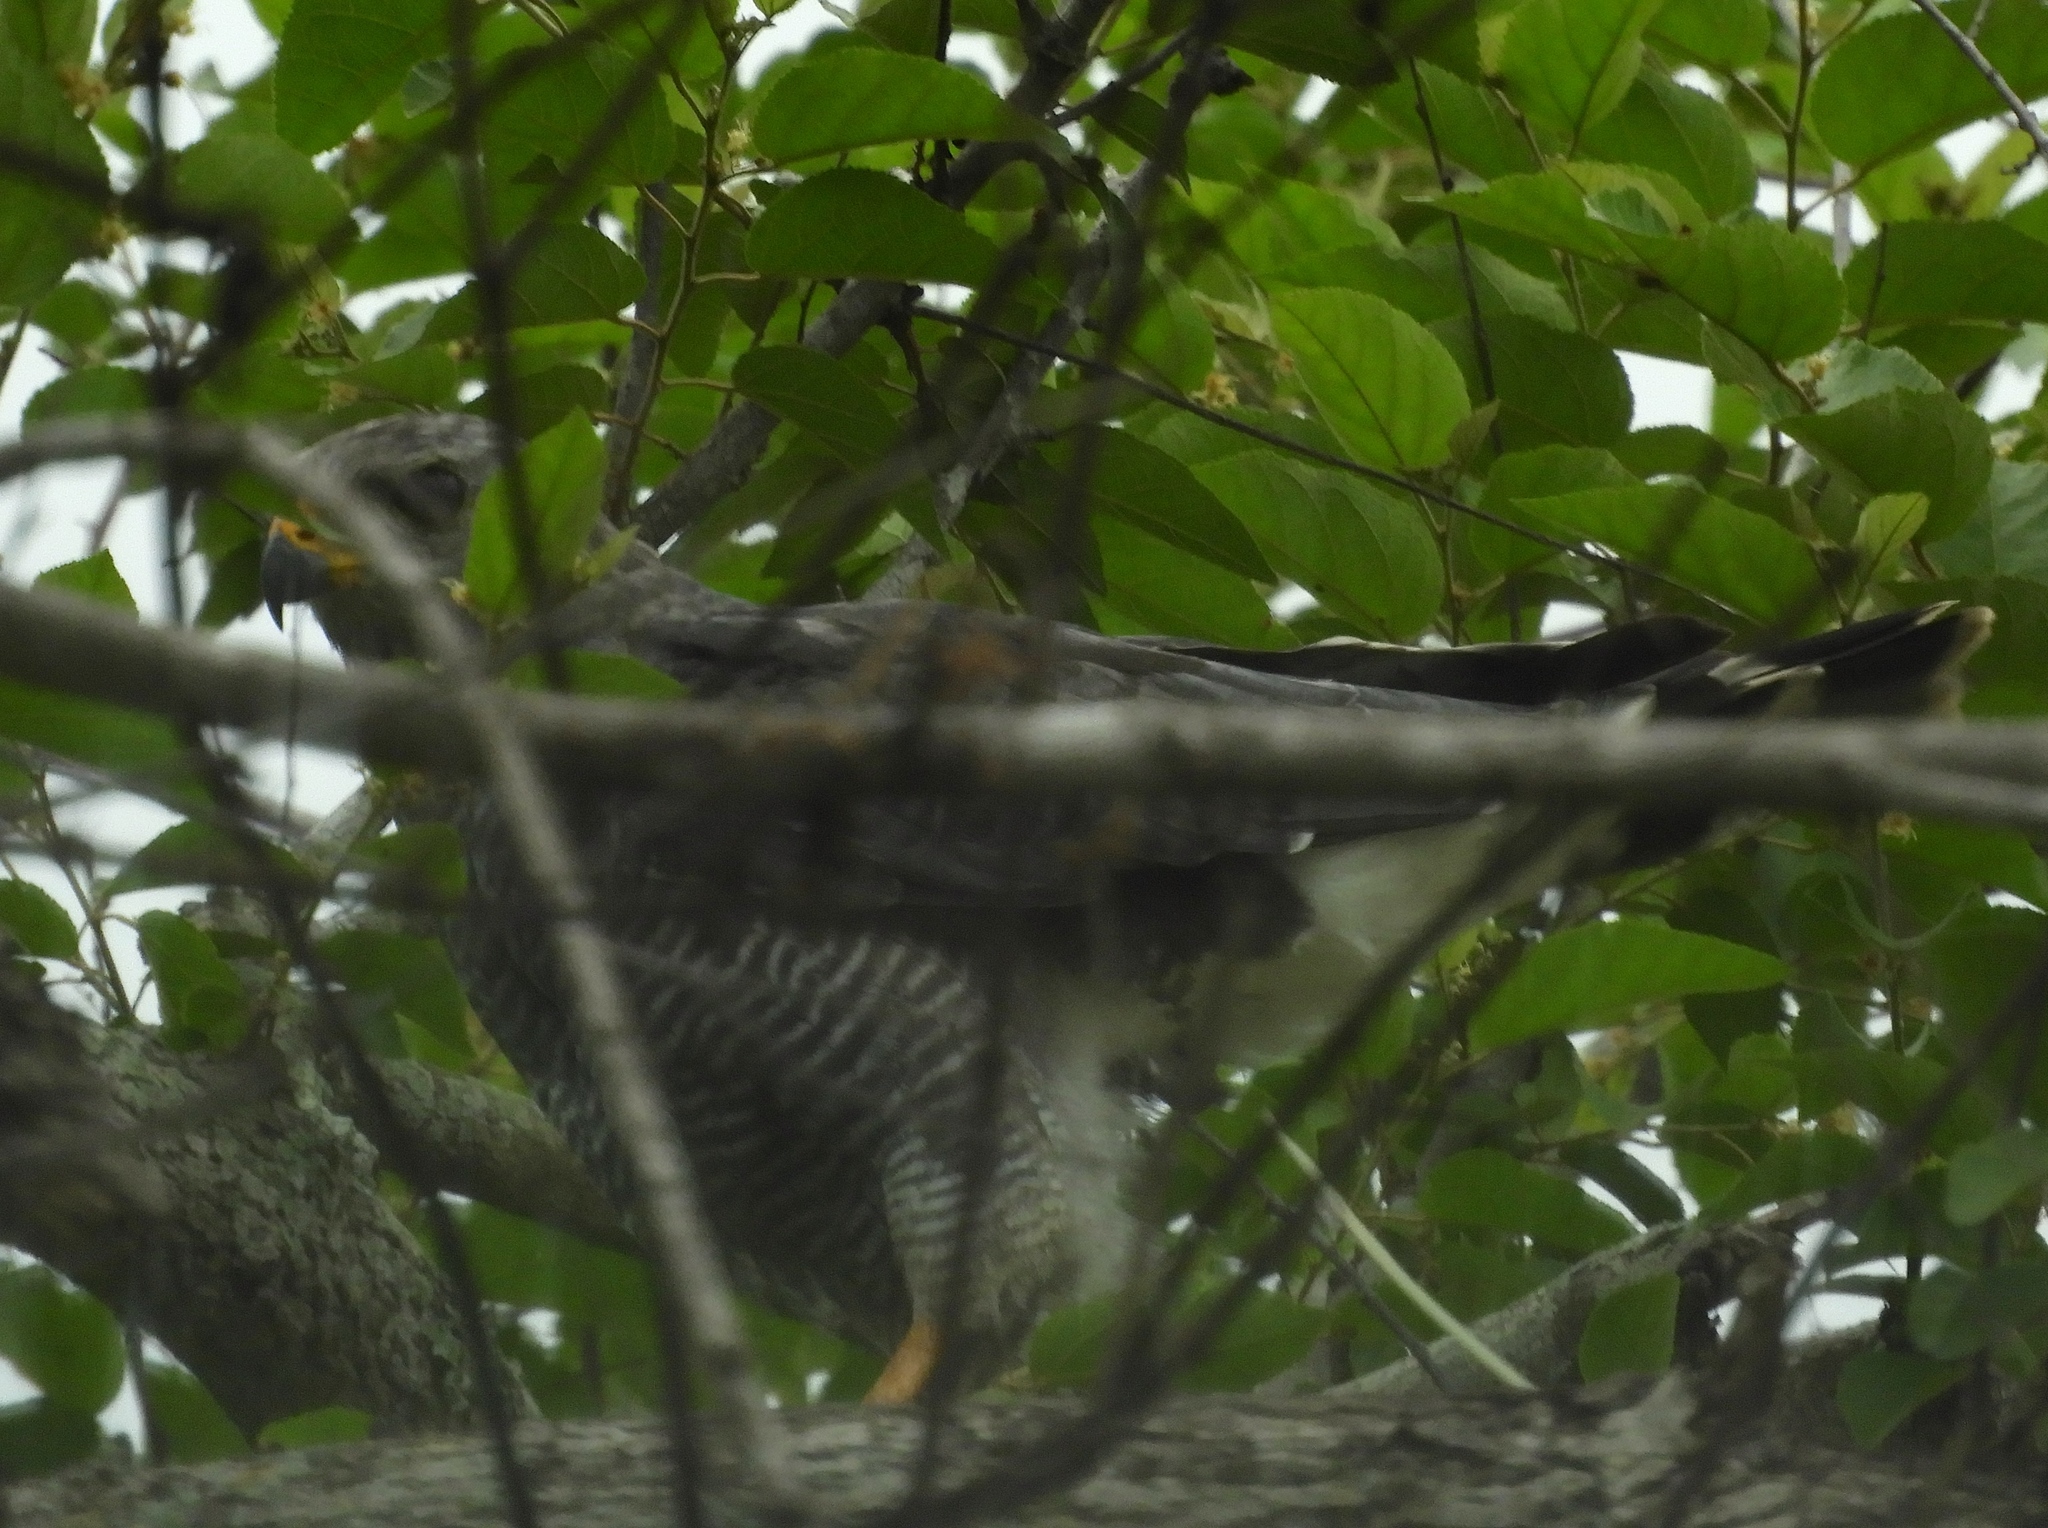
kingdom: Animalia
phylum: Chordata
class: Aves
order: Accipitriformes
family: Accipitridae
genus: Buteo
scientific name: Buteo nitidus
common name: Grey-lined hawk
